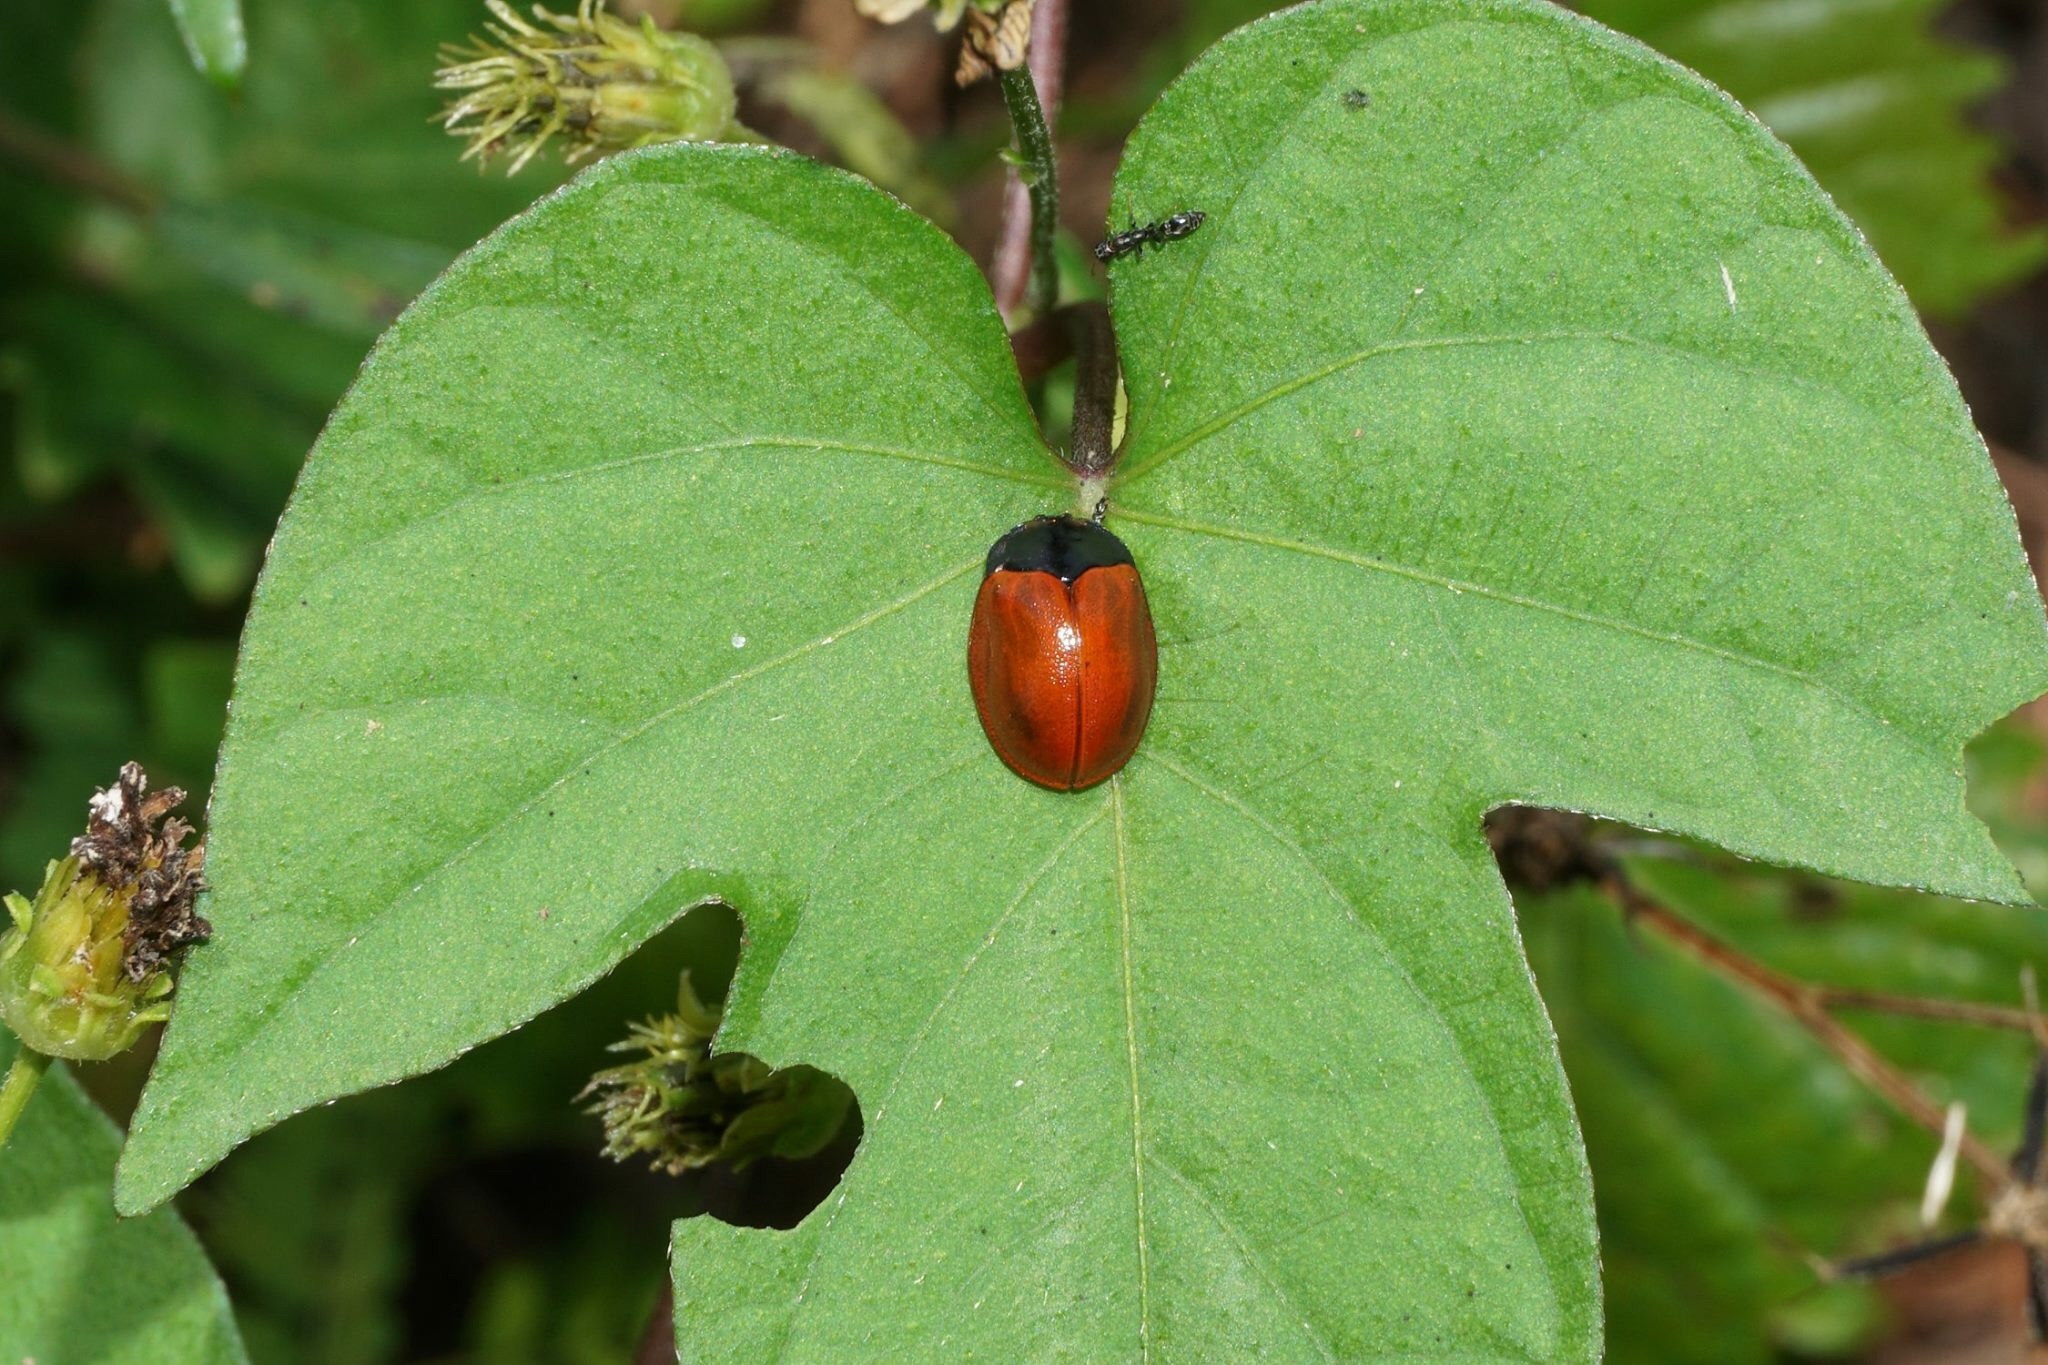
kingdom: Animalia
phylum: Arthropoda
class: Insecta
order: Coleoptera
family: Chrysomelidae
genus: Chelymorpha
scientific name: Chelymorpha cribraria
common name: Tortoise beetle
